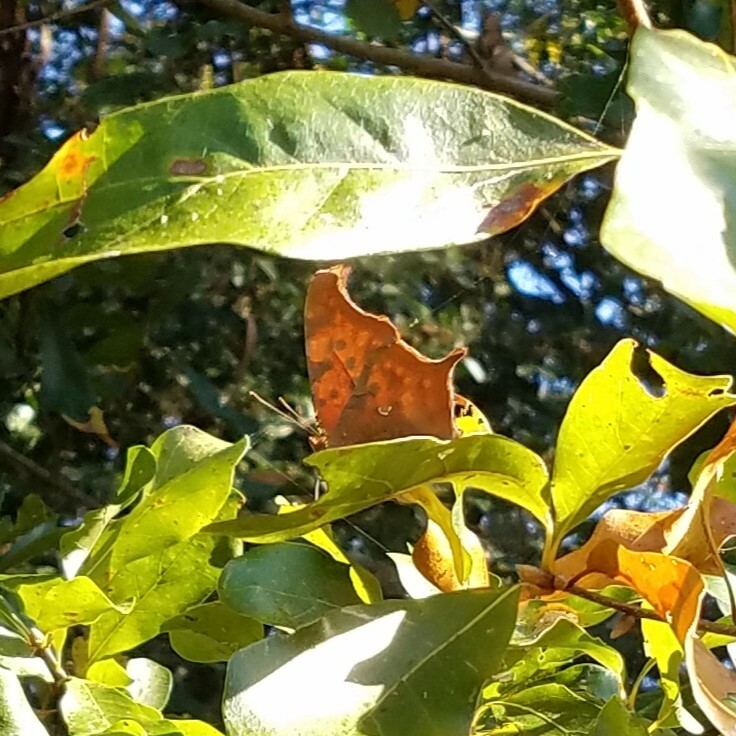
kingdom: Animalia
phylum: Arthropoda
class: Insecta
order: Lepidoptera
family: Nymphalidae
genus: Polygonia
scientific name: Polygonia interrogationis
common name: Question mark
